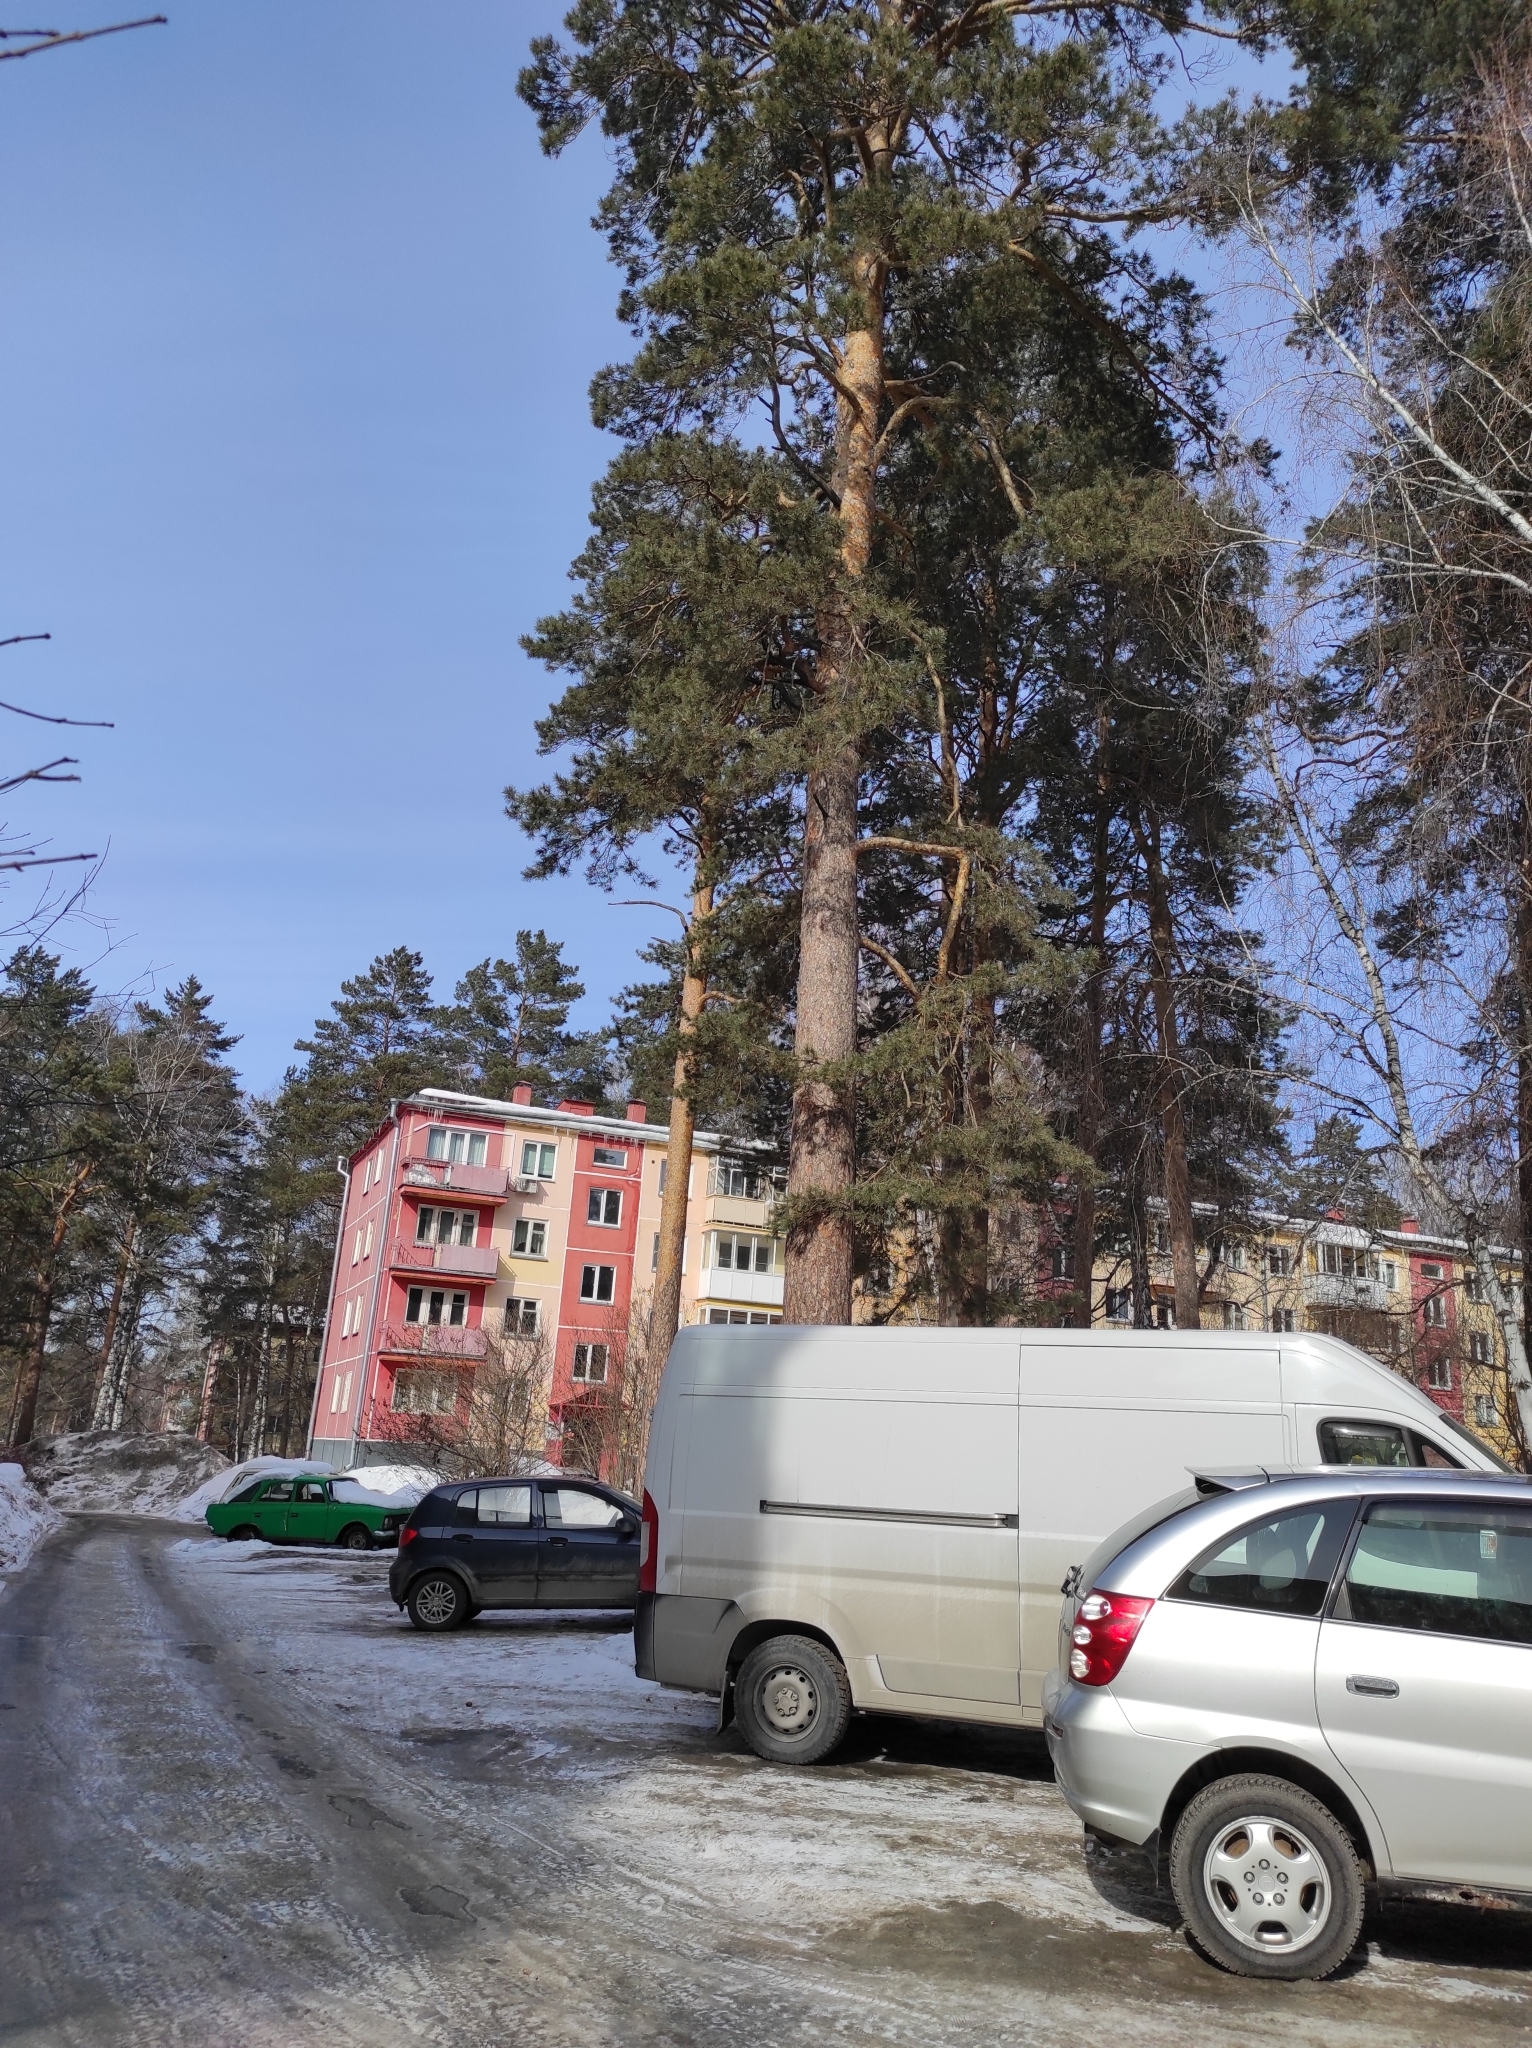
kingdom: Plantae
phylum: Tracheophyta
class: Pinopsida
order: Pinales
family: Pinaceae
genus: Pinus
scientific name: Pinus sylvestris
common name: Scots pine
